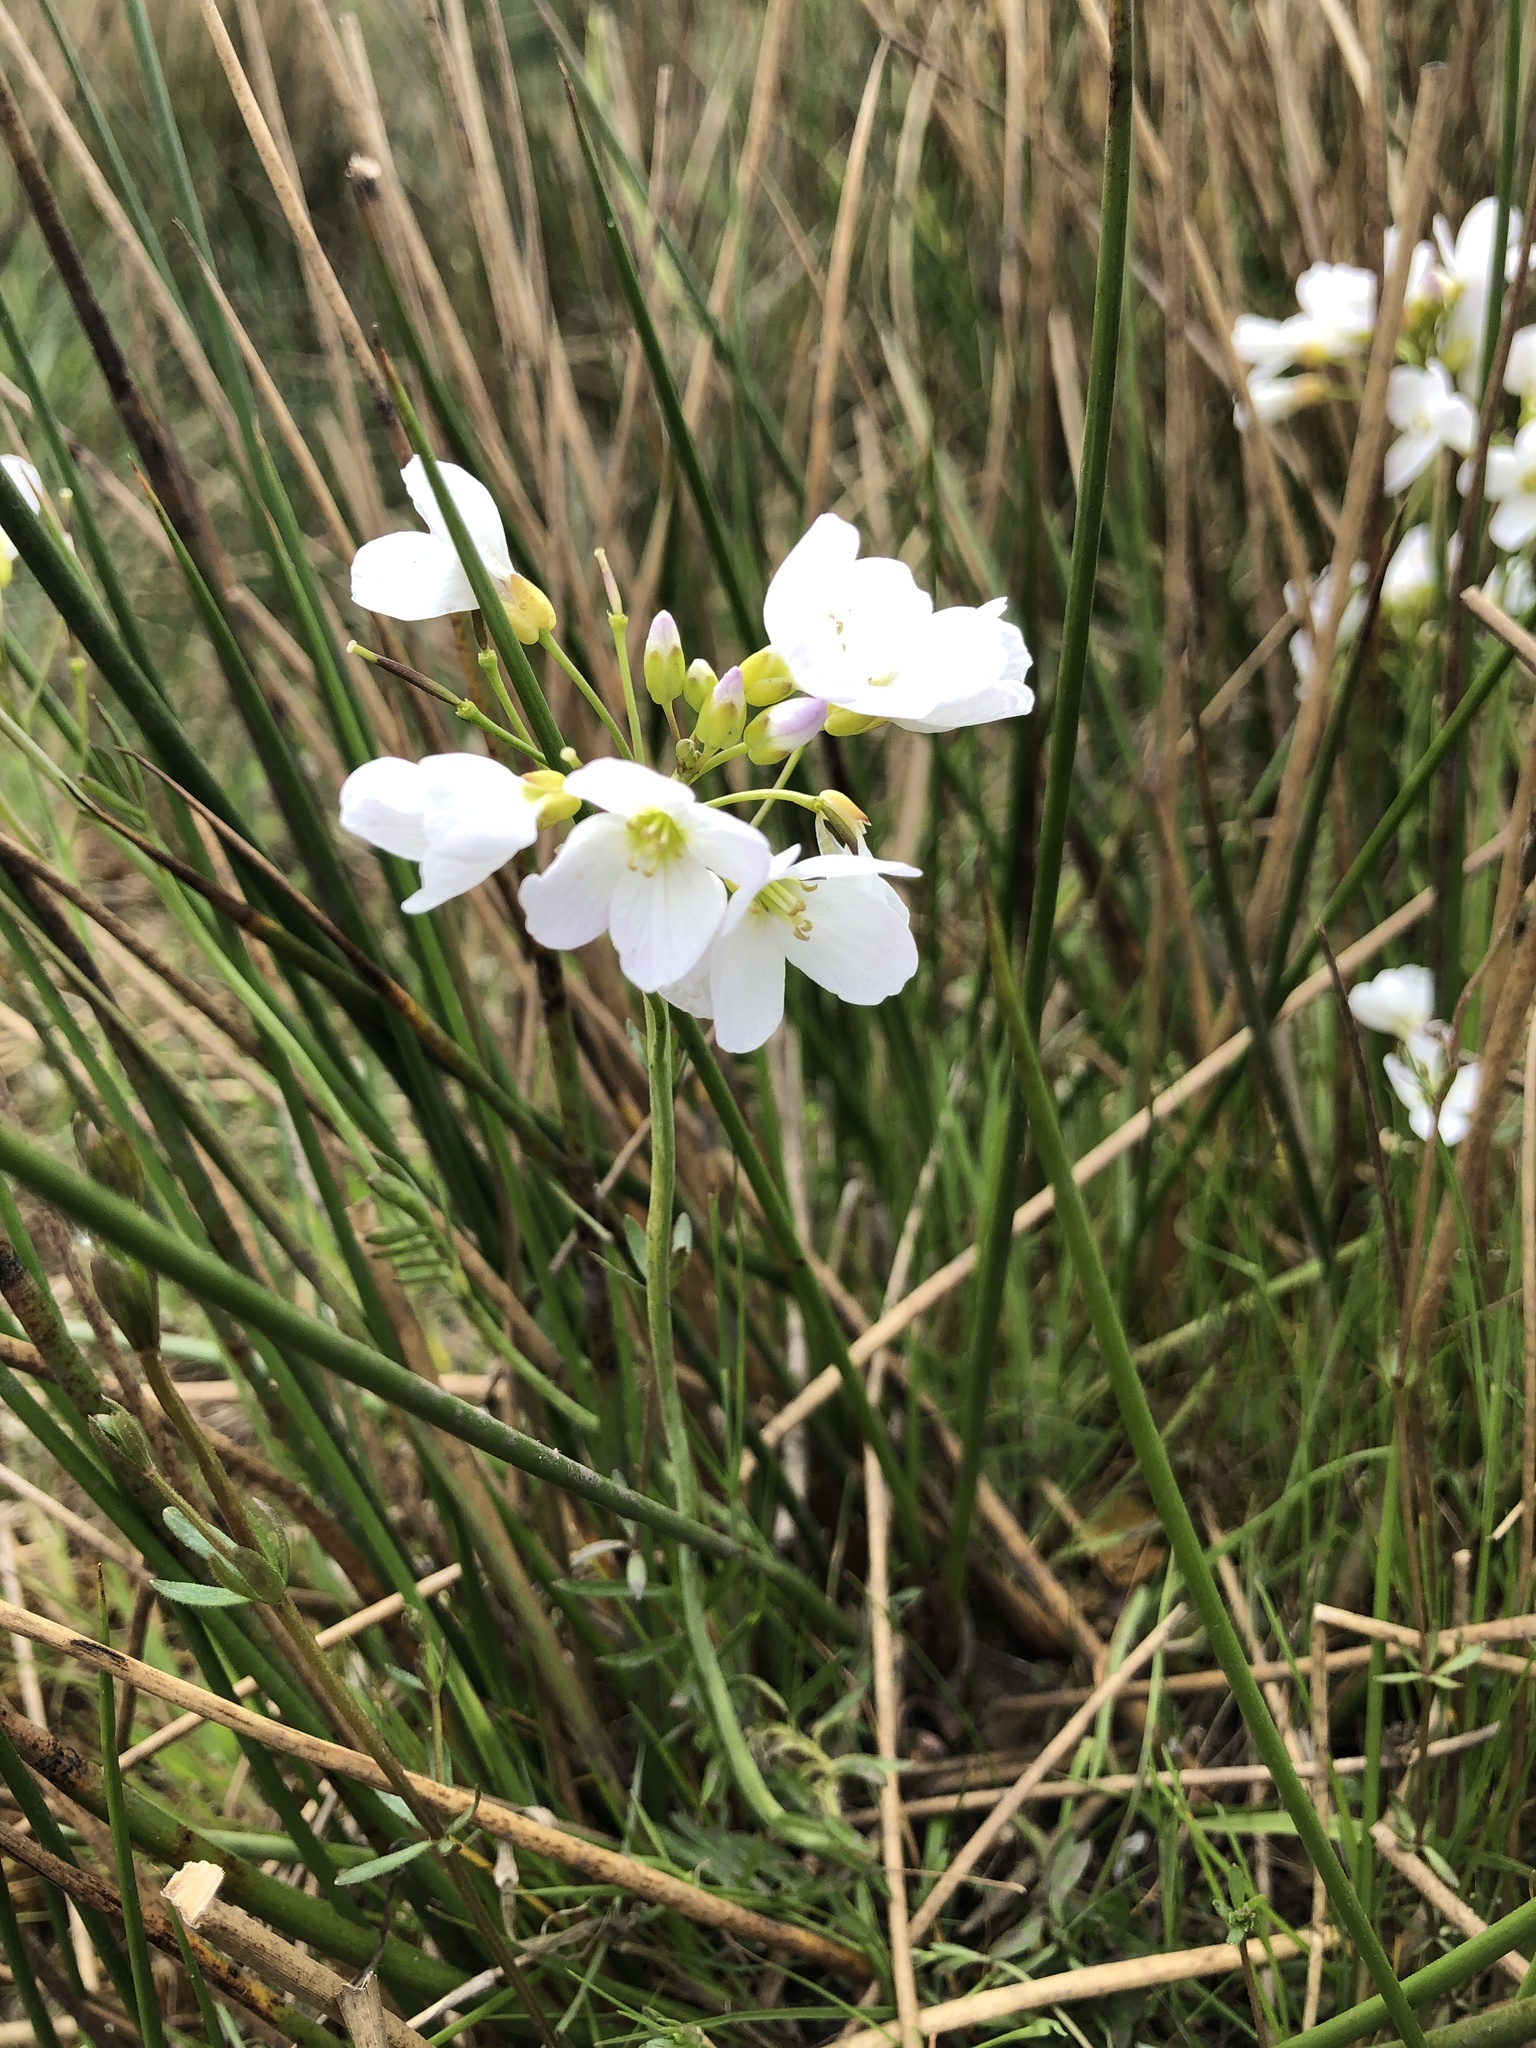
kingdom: Plantae
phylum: Tracheophyta
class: Magnoliopsida
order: Brassicales
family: Brassicaceae
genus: Cardamine
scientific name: Cardamine pratensis
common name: Cuckoo flower
